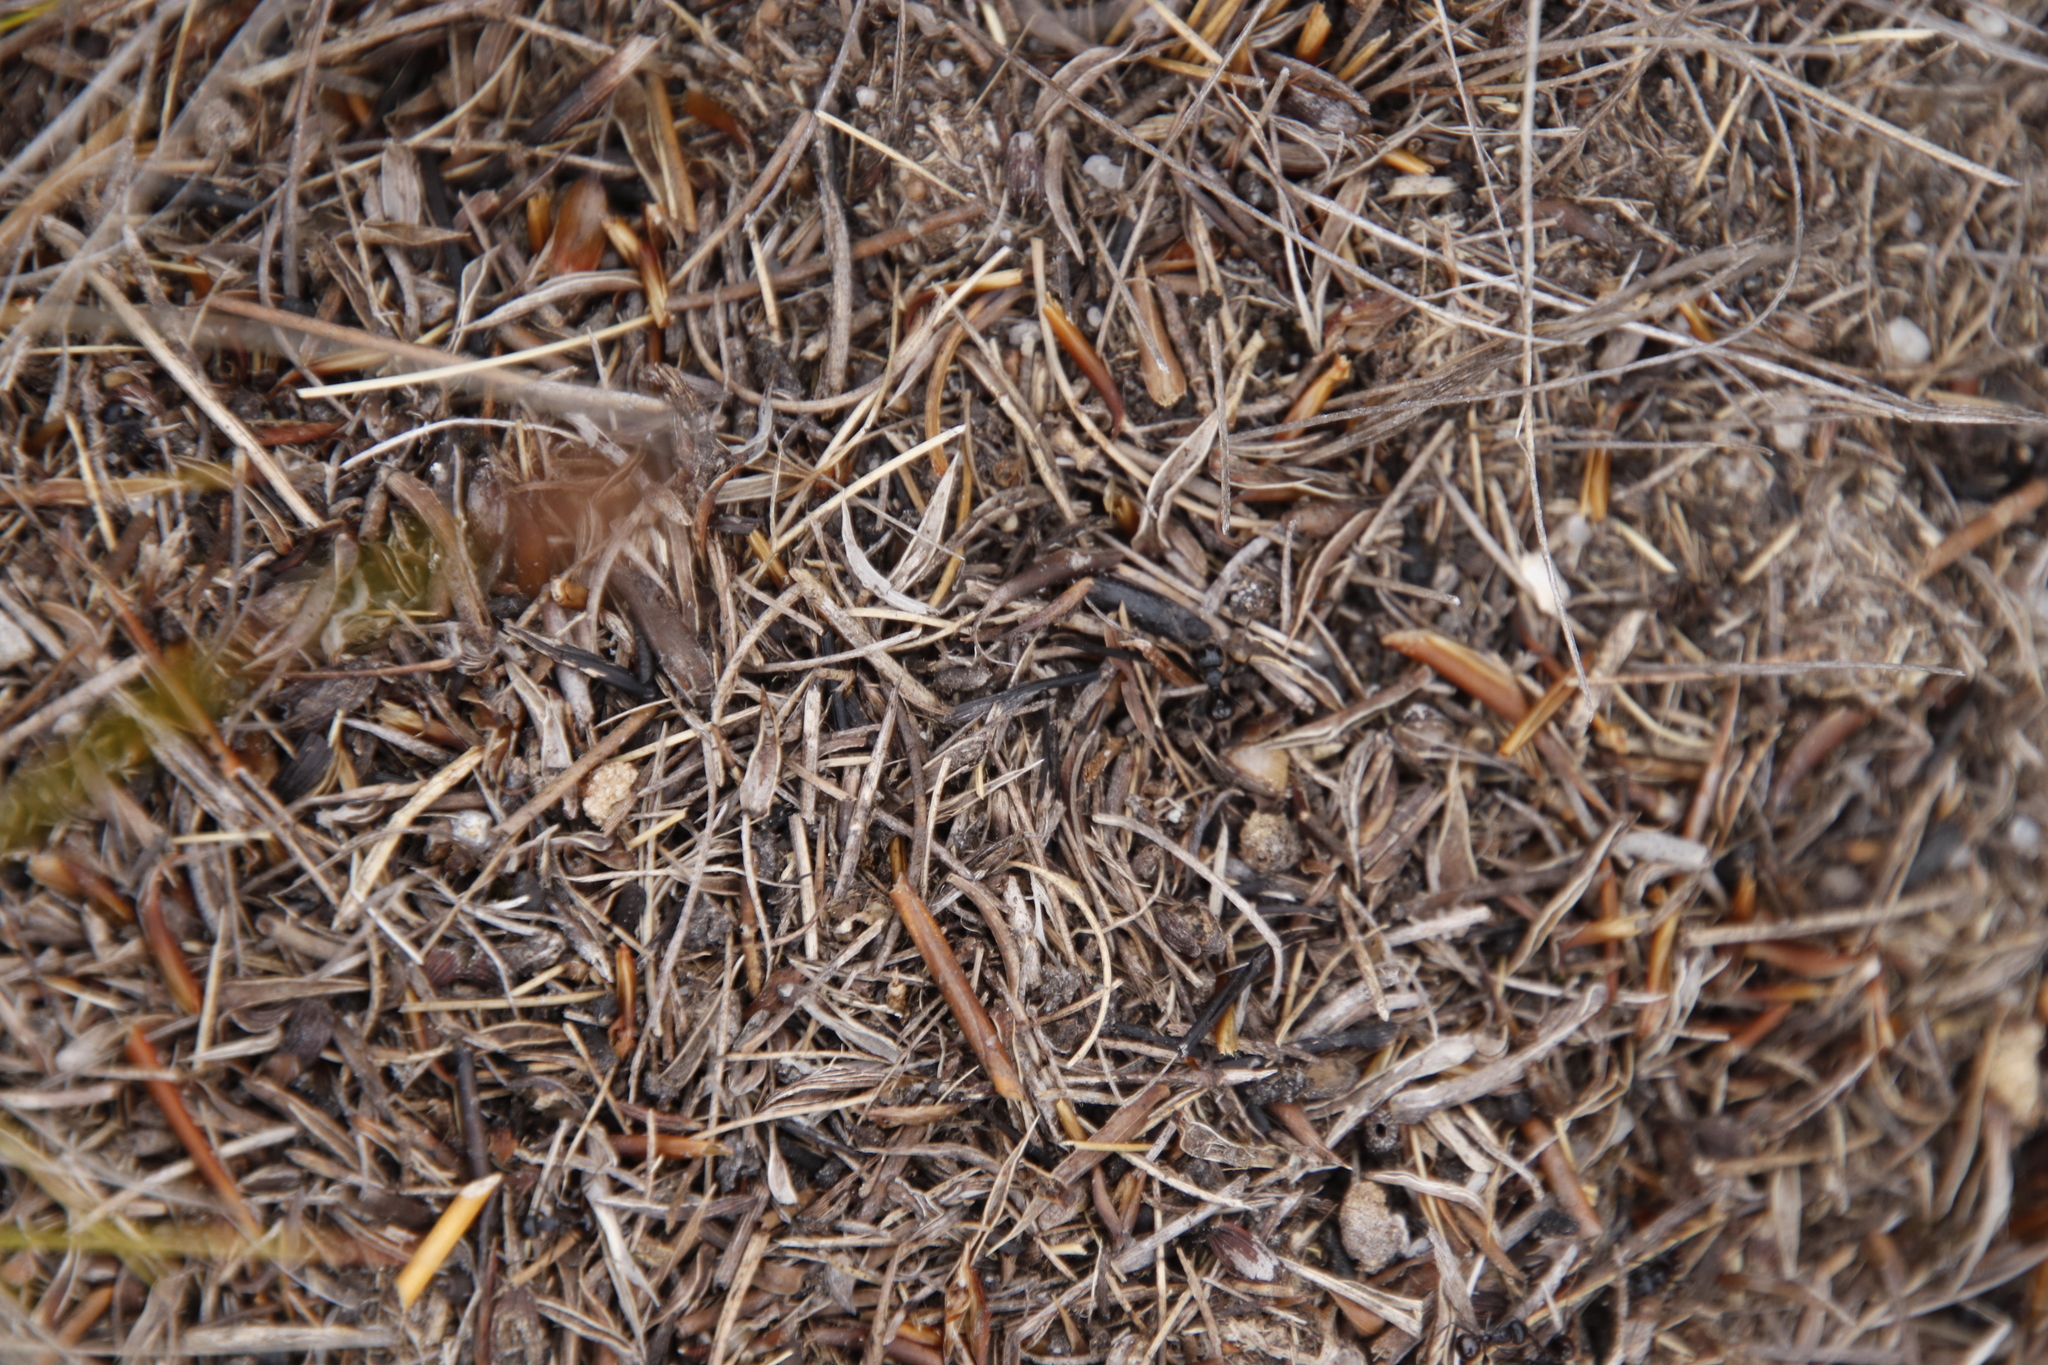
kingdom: Animalia
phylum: Arthropoda
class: Insecta
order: Hymenoptera
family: Formicidae
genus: Myrmicaria
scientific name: Myrmicaria nigra
